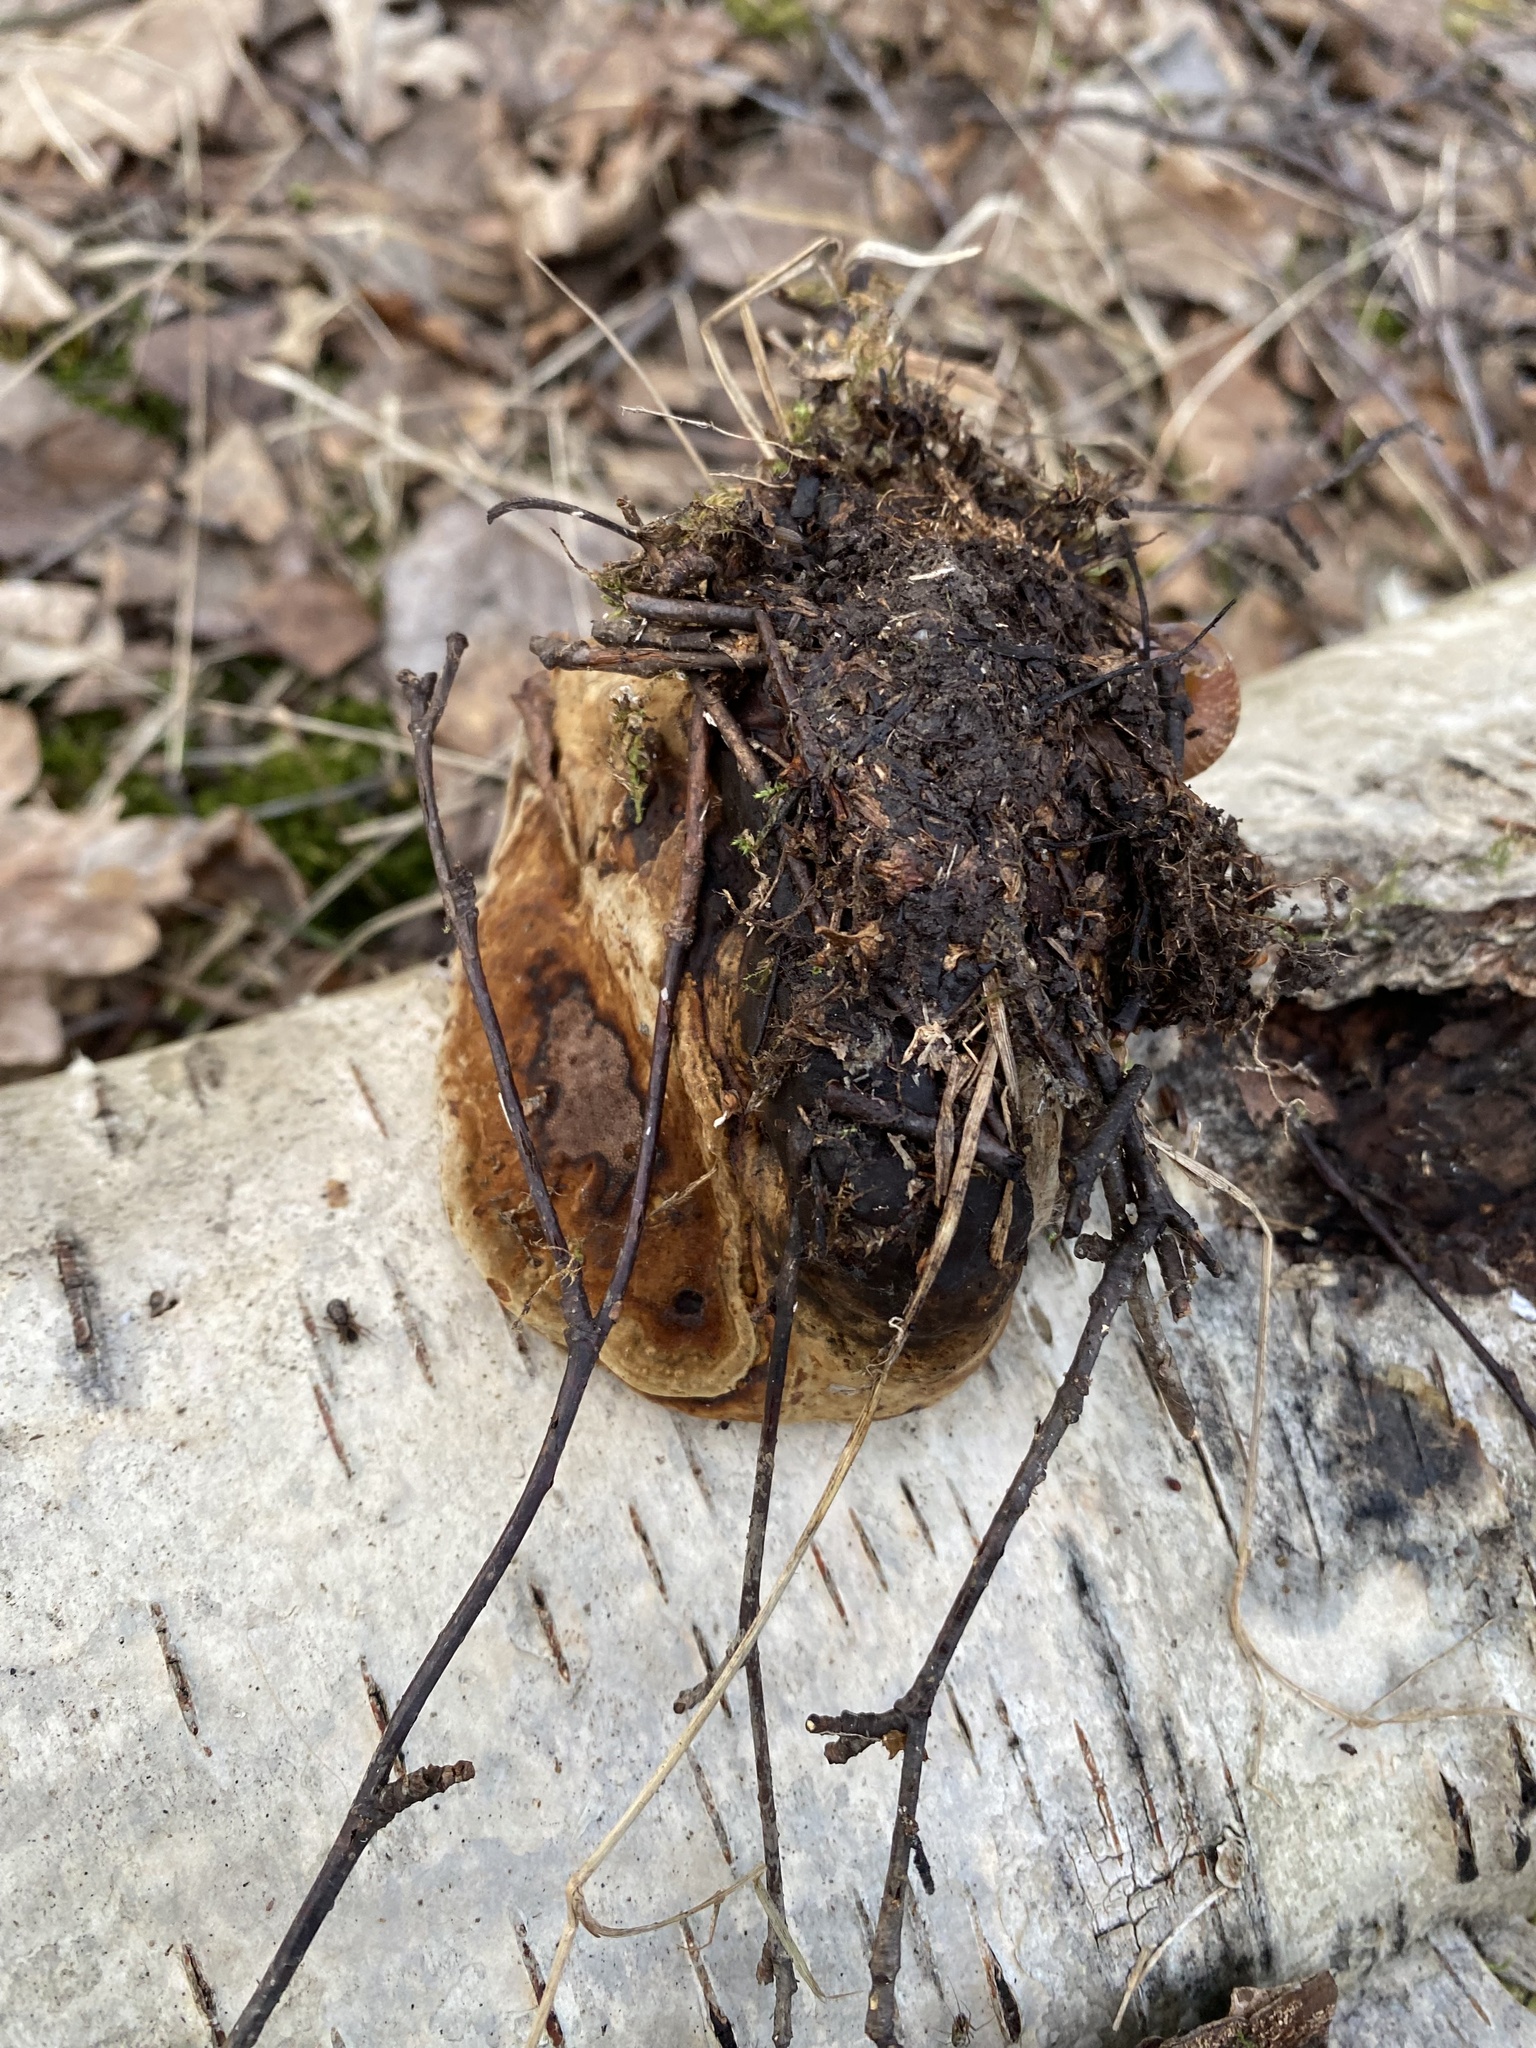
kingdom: Fungi
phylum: Basidiomycota
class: Agaricomycetes
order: Polyporales
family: Polyporaceae
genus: Fomes
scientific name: Fomes fomentarius
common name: Hoof fungus
